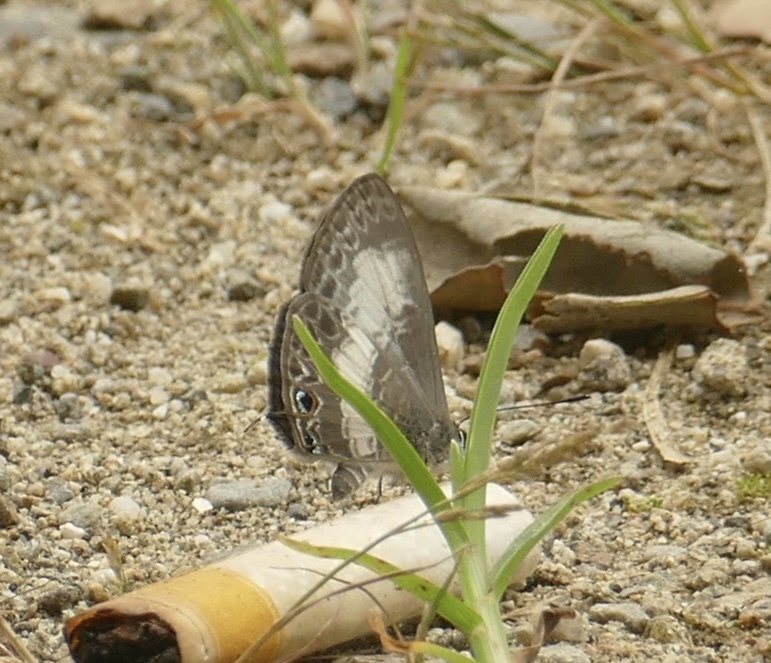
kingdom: Animalia
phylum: Arthropoda
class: Insecta
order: Lepidoptera
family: Lycaenidae
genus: Nacaduba
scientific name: Nacaduba kurava
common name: Transparent 6-line blue
